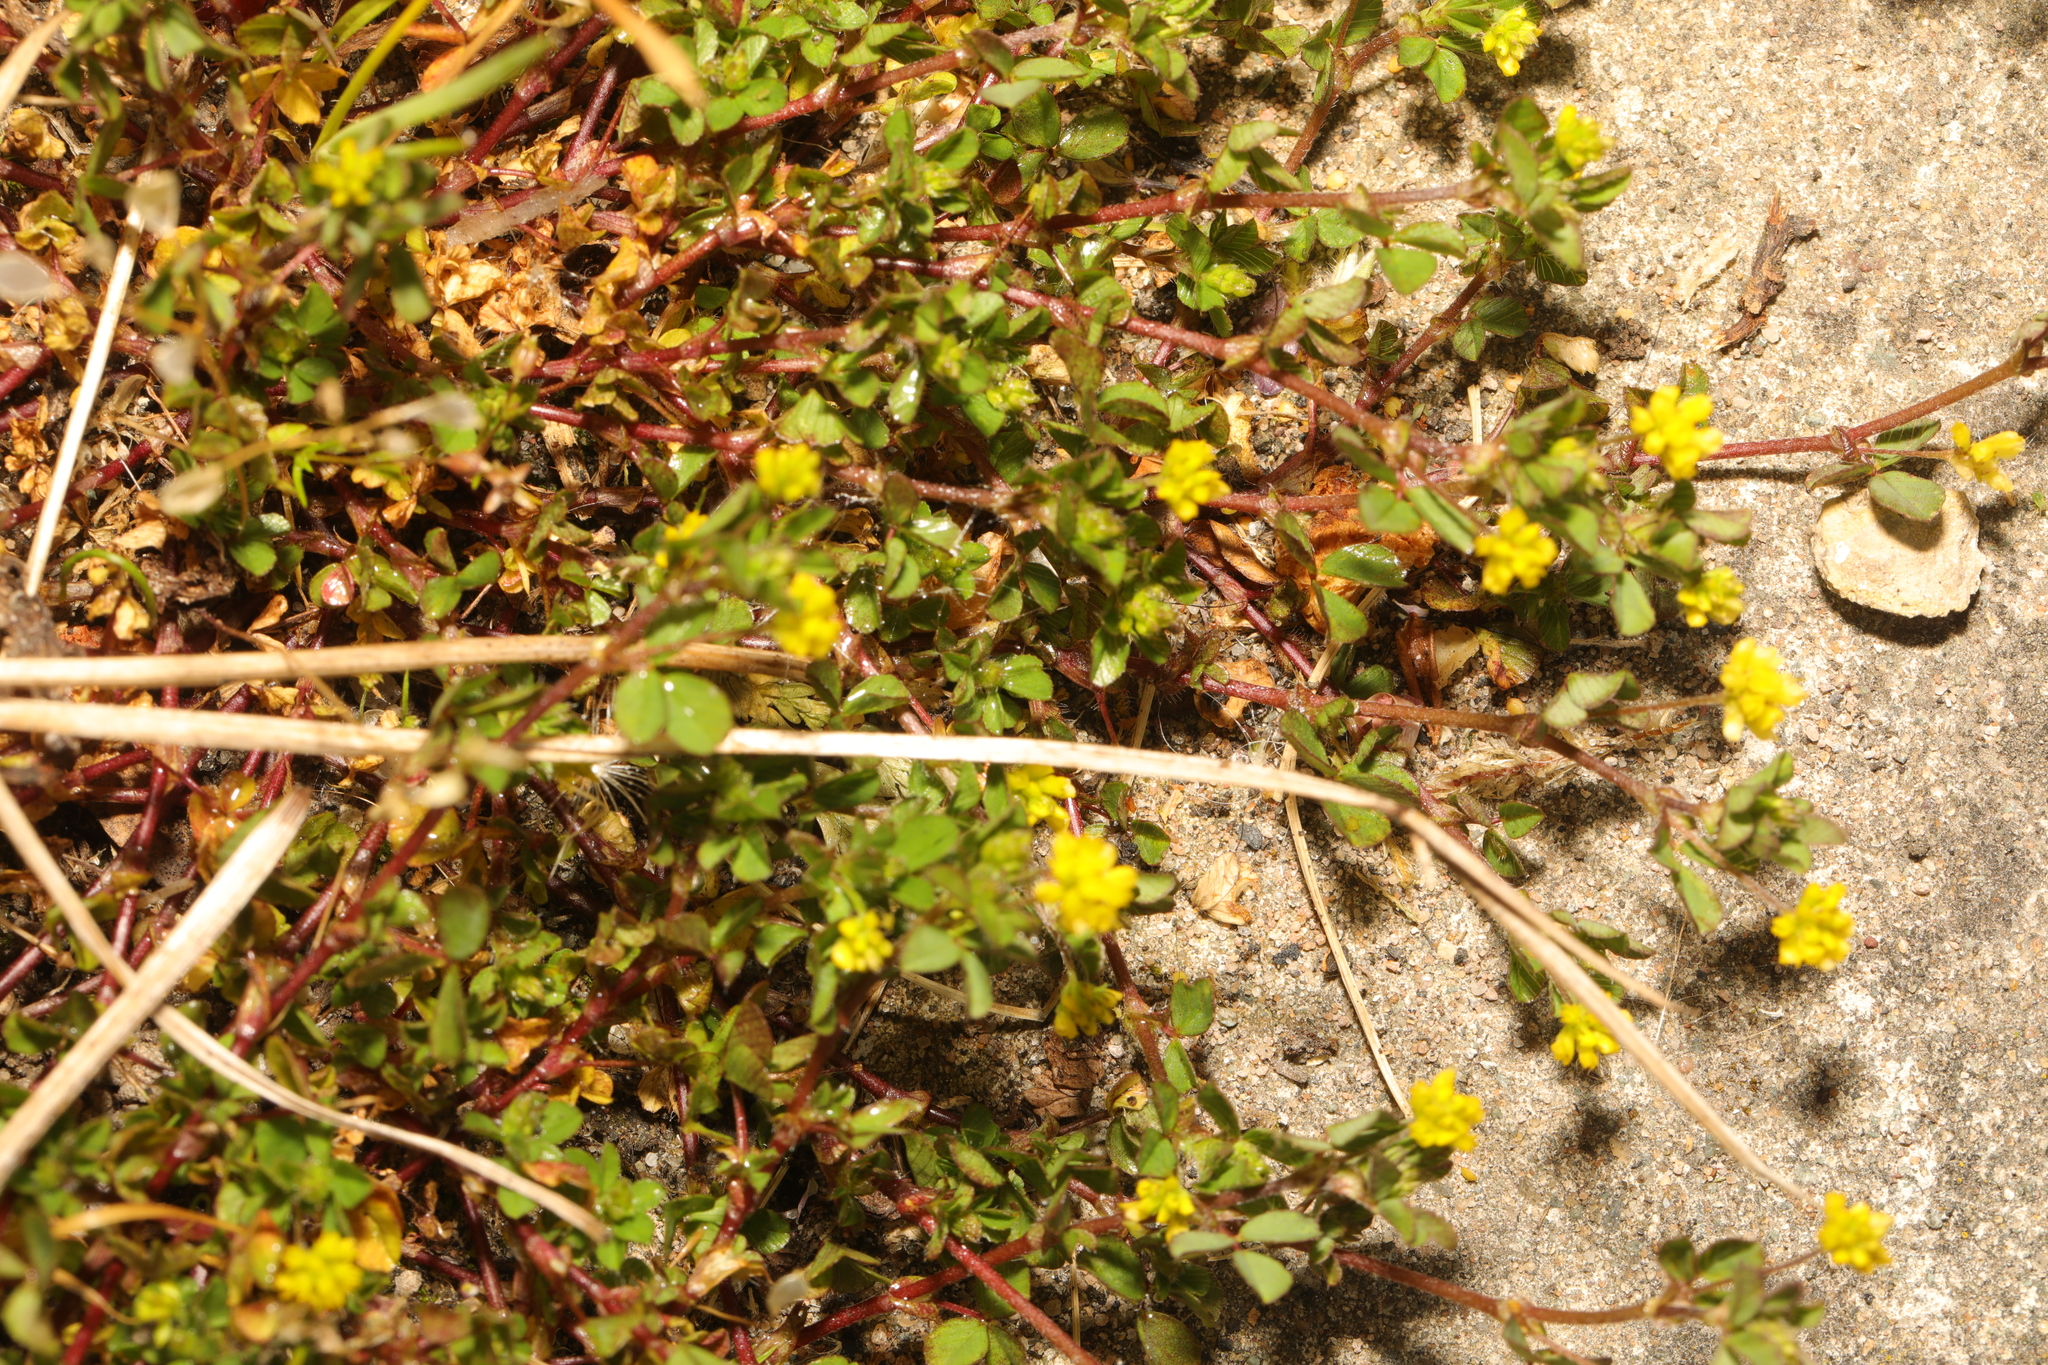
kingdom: Plantae
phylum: Tracheophyta
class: Magnoliopsida
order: Fabales
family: Fabaceae
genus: Trifolium
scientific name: Trifolium dubium
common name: Suckling clover
